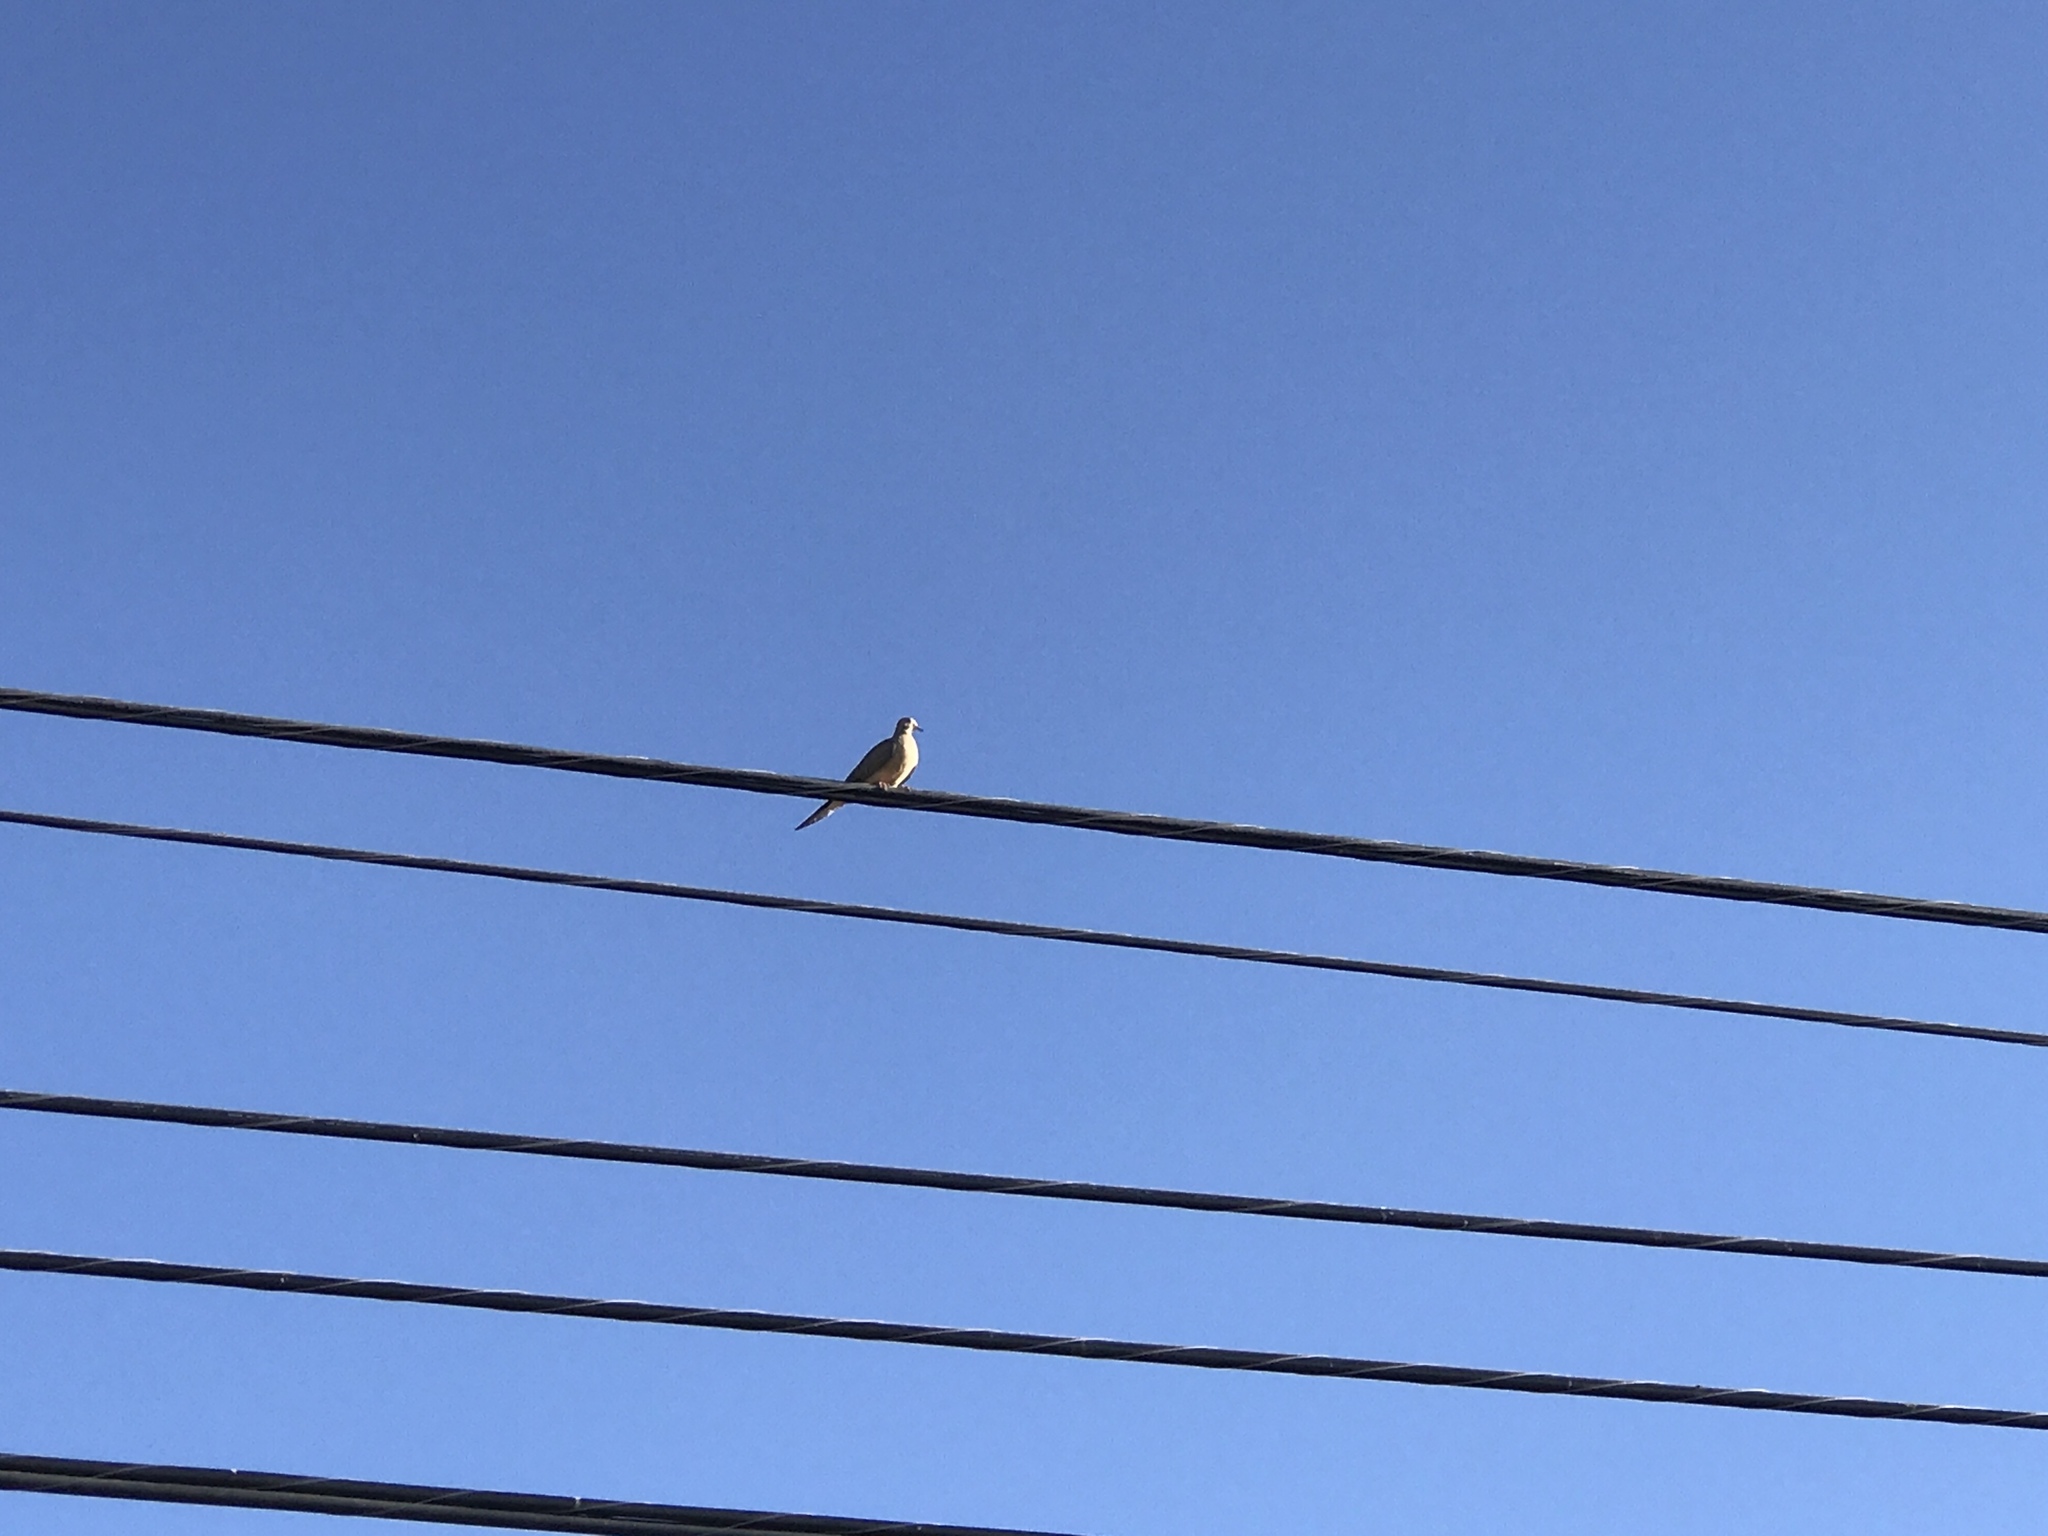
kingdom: Animalia
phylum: Chordata
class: Aves
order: Columbiformes
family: Columbidae
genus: Zenaida
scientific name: Zenaida macroura
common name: Mourning dove
